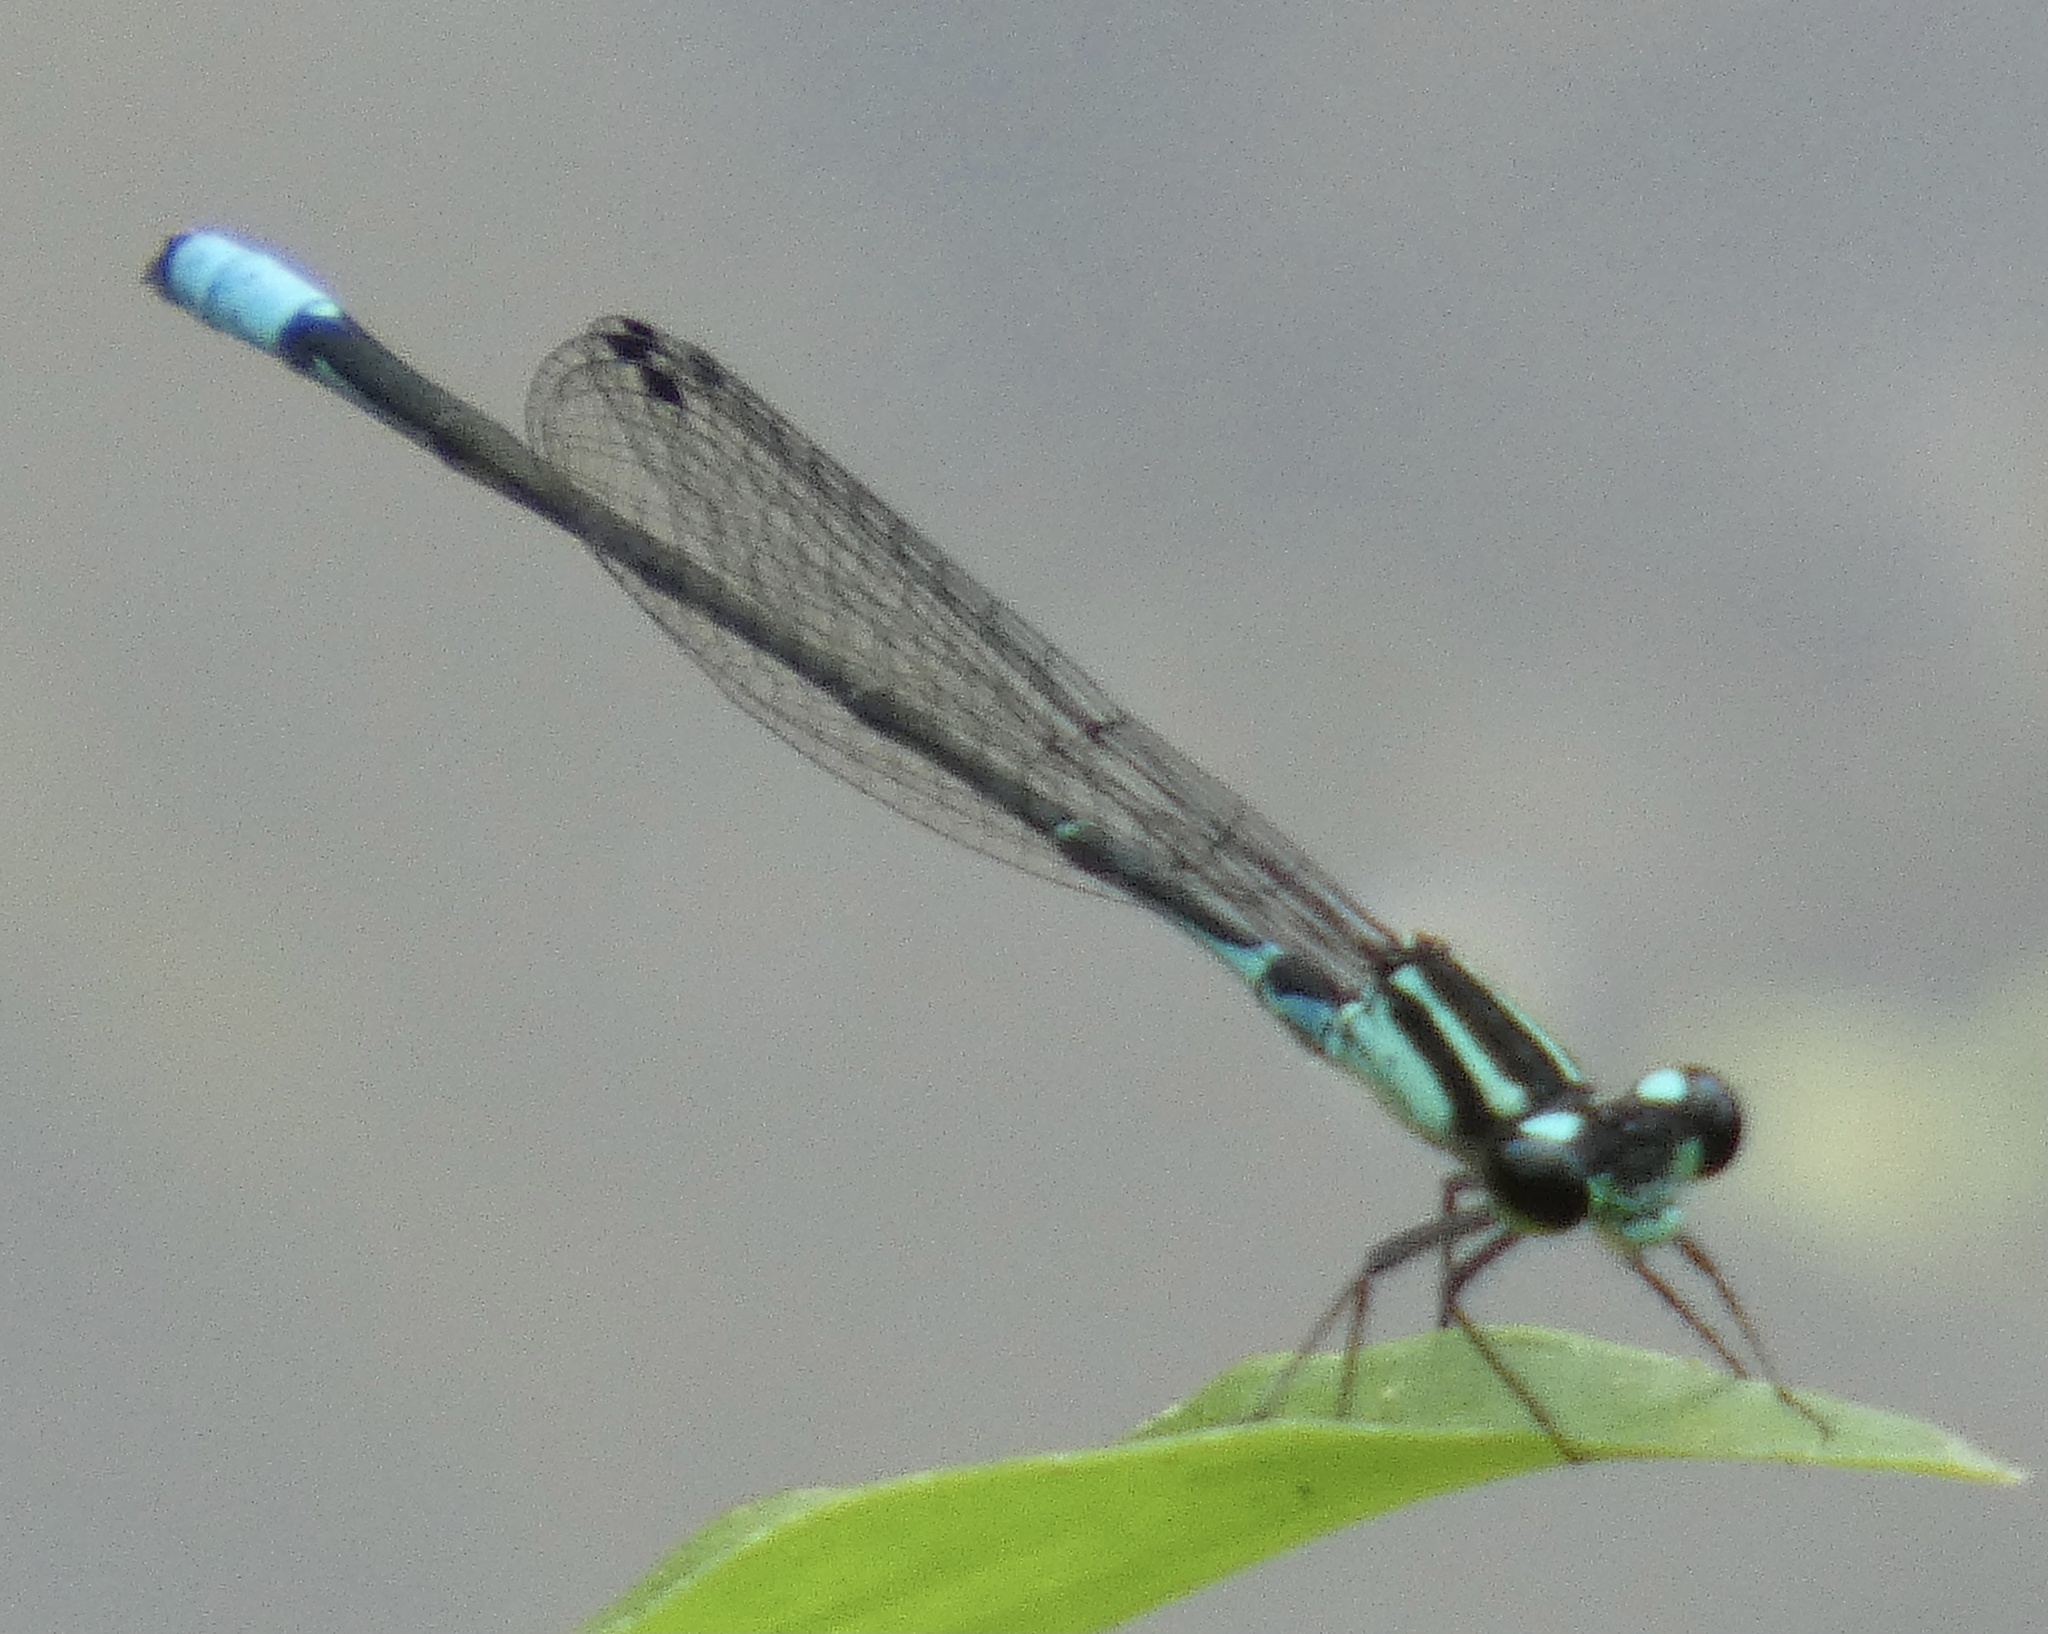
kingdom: Animalia
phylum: Arthropoda
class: Insecta
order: Odonata
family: Coenagrionidae
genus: Acanthagrion
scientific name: Acanthagrion lancea
